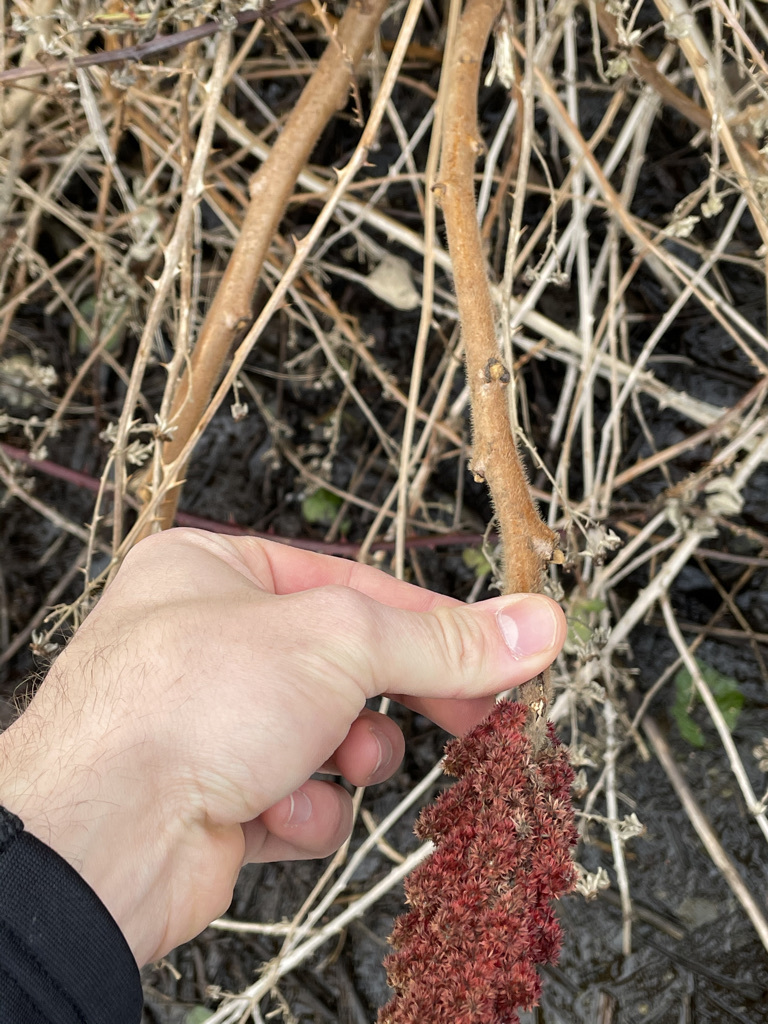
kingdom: Plantae
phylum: Tracheophyta
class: Magnoliopsida
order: Sapindales
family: Anacardiaceae
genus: Rhus
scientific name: Rhus typhina
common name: Staghorn sumac
